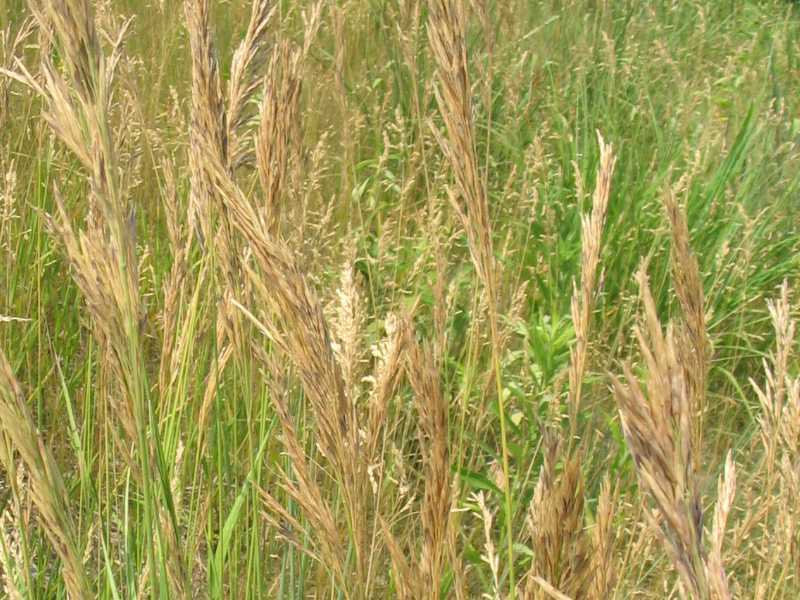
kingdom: Plantae
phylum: Tracheophyta
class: Liliopsida
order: Poales
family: Poaceae
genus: Bromus
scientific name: Bromus inermis
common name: Smooth brome
